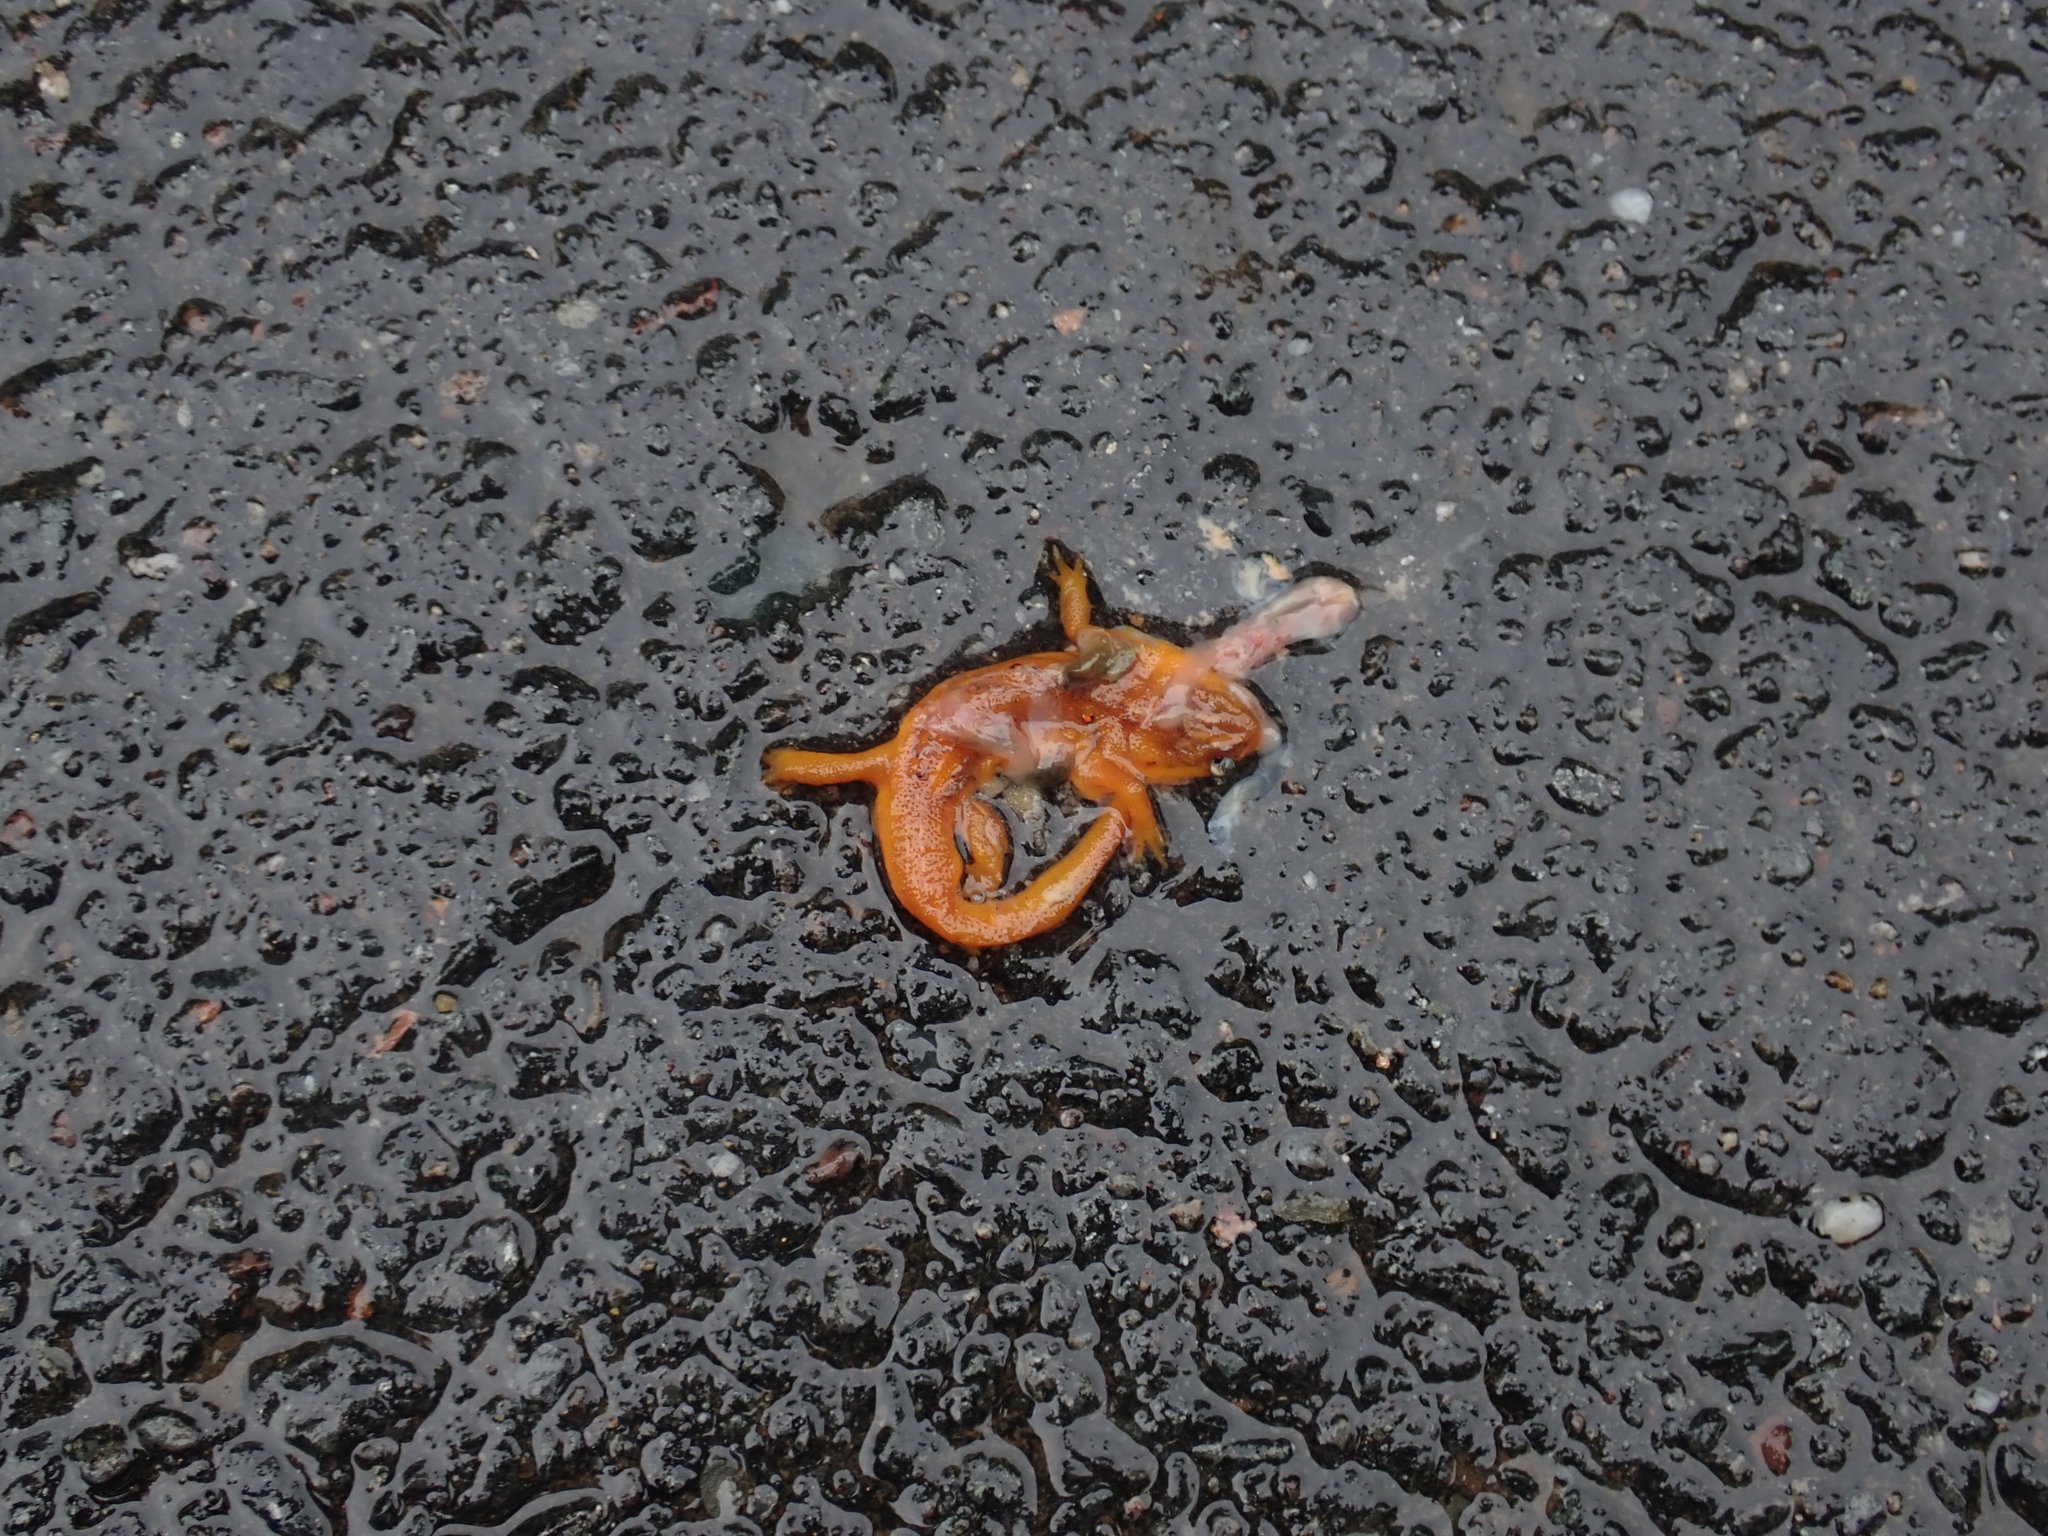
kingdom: Animalia
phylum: Chordata
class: Amphibia
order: Caudata
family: Salamandridae
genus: Notophthalmus
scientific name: Notophthalmus viridescens
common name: Eastern newt
